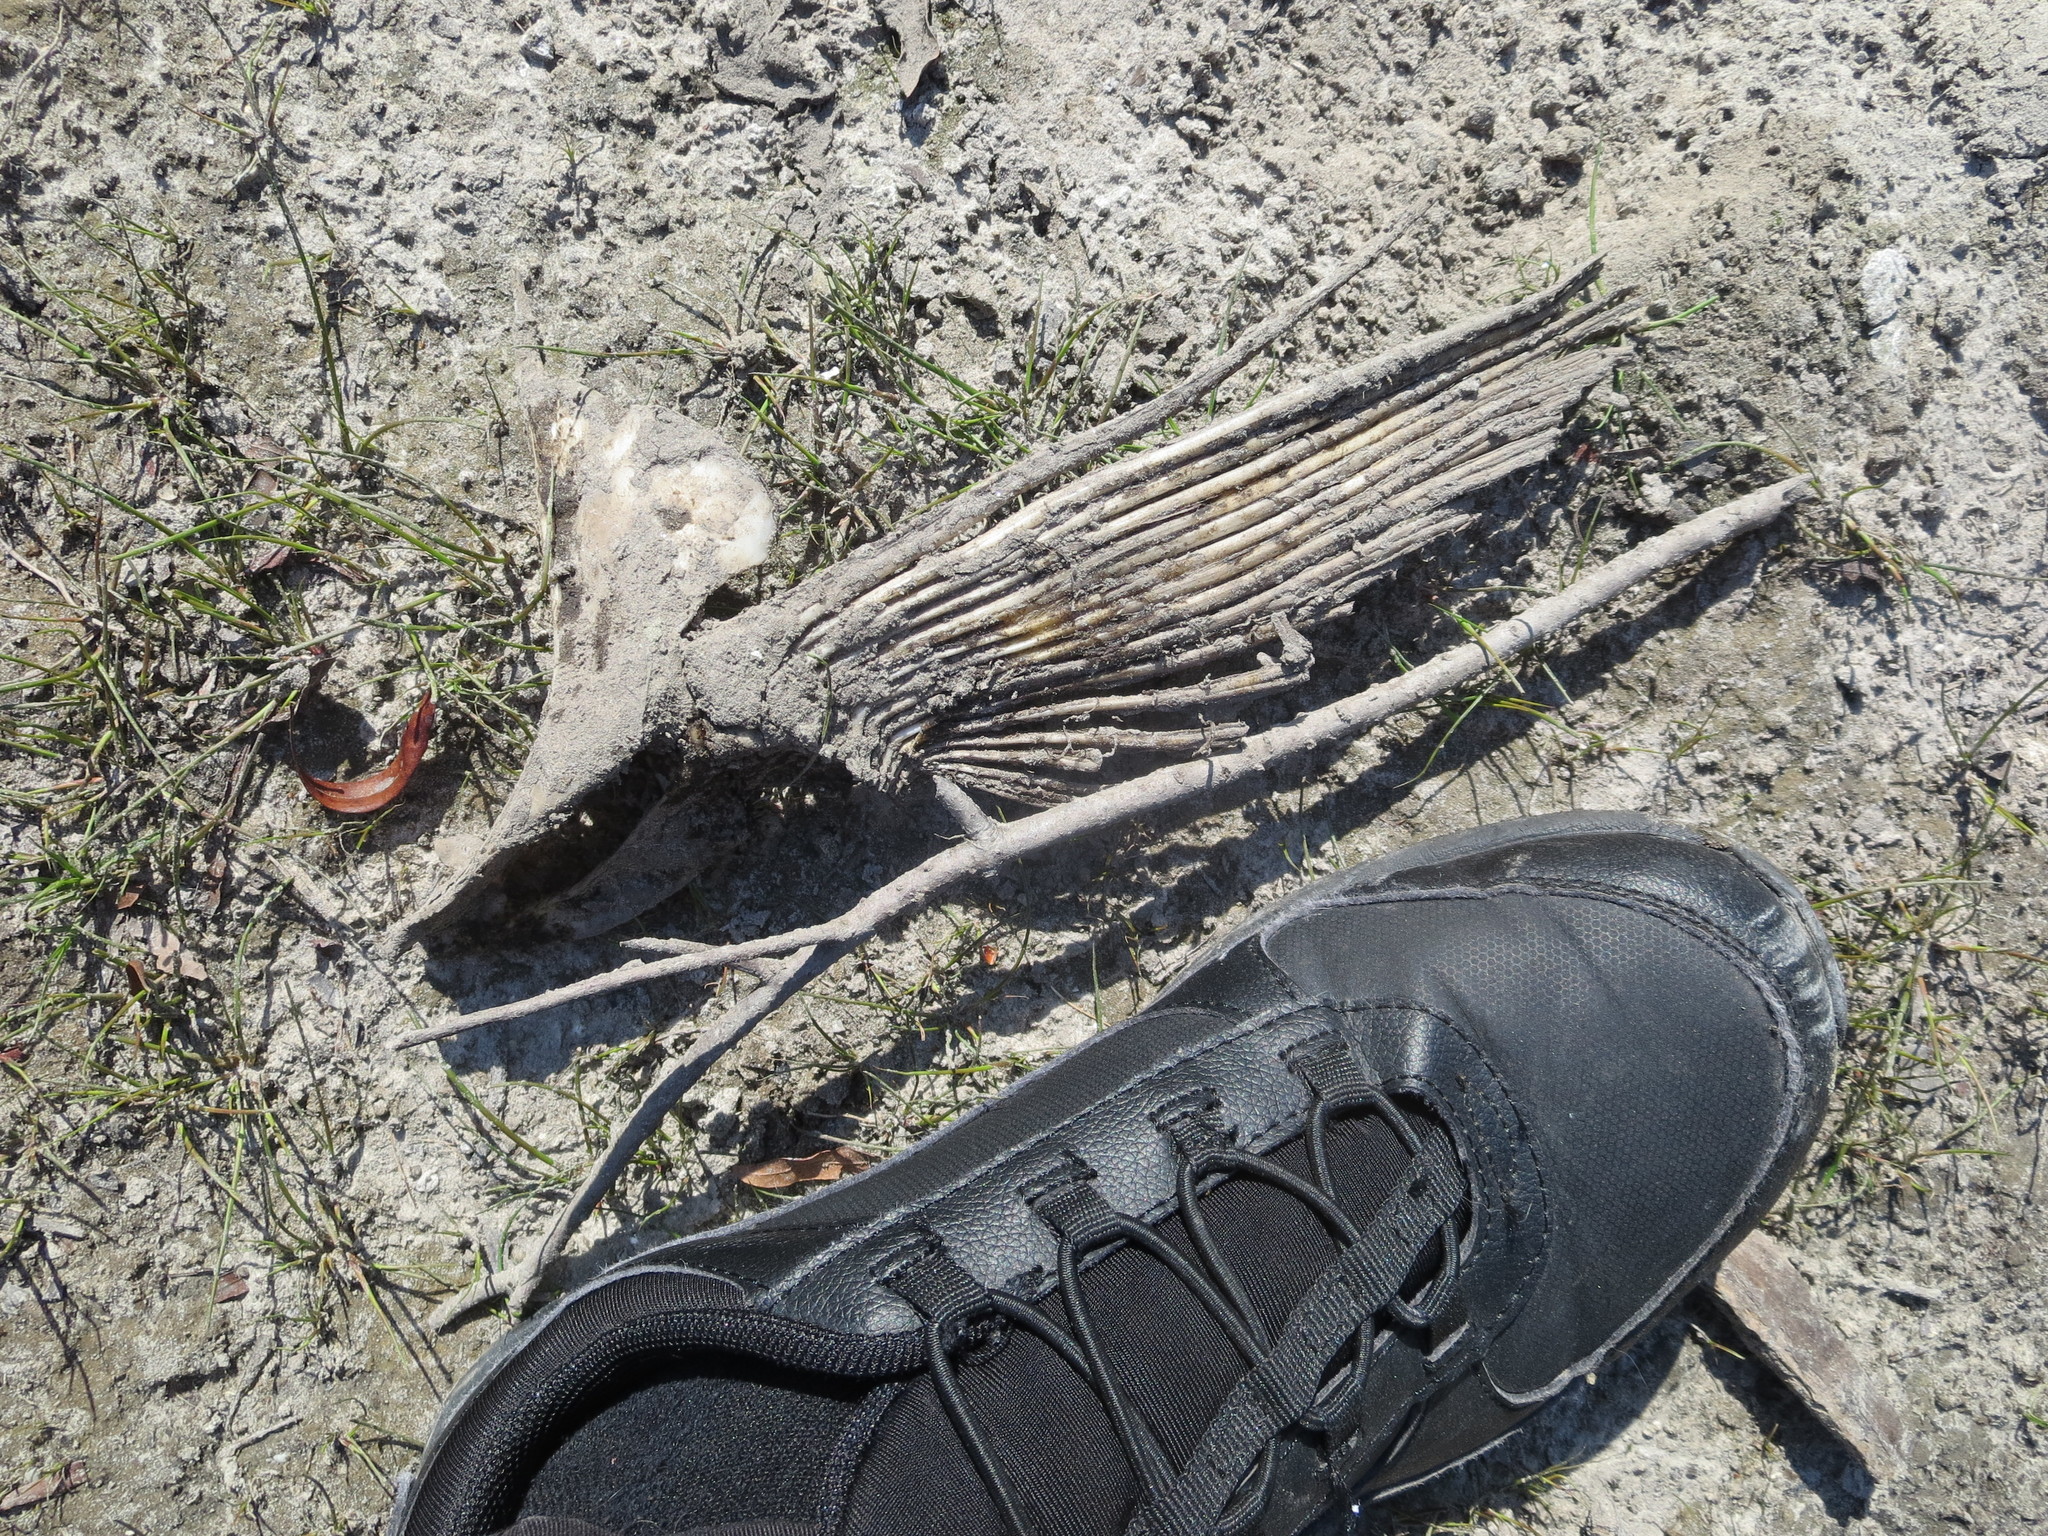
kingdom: Animalia
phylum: Chordata
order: Cypriniformes
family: Cyprinidae
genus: Ctenopharyngodon
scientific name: Ctenopharyngodon idella
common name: Grass carp
